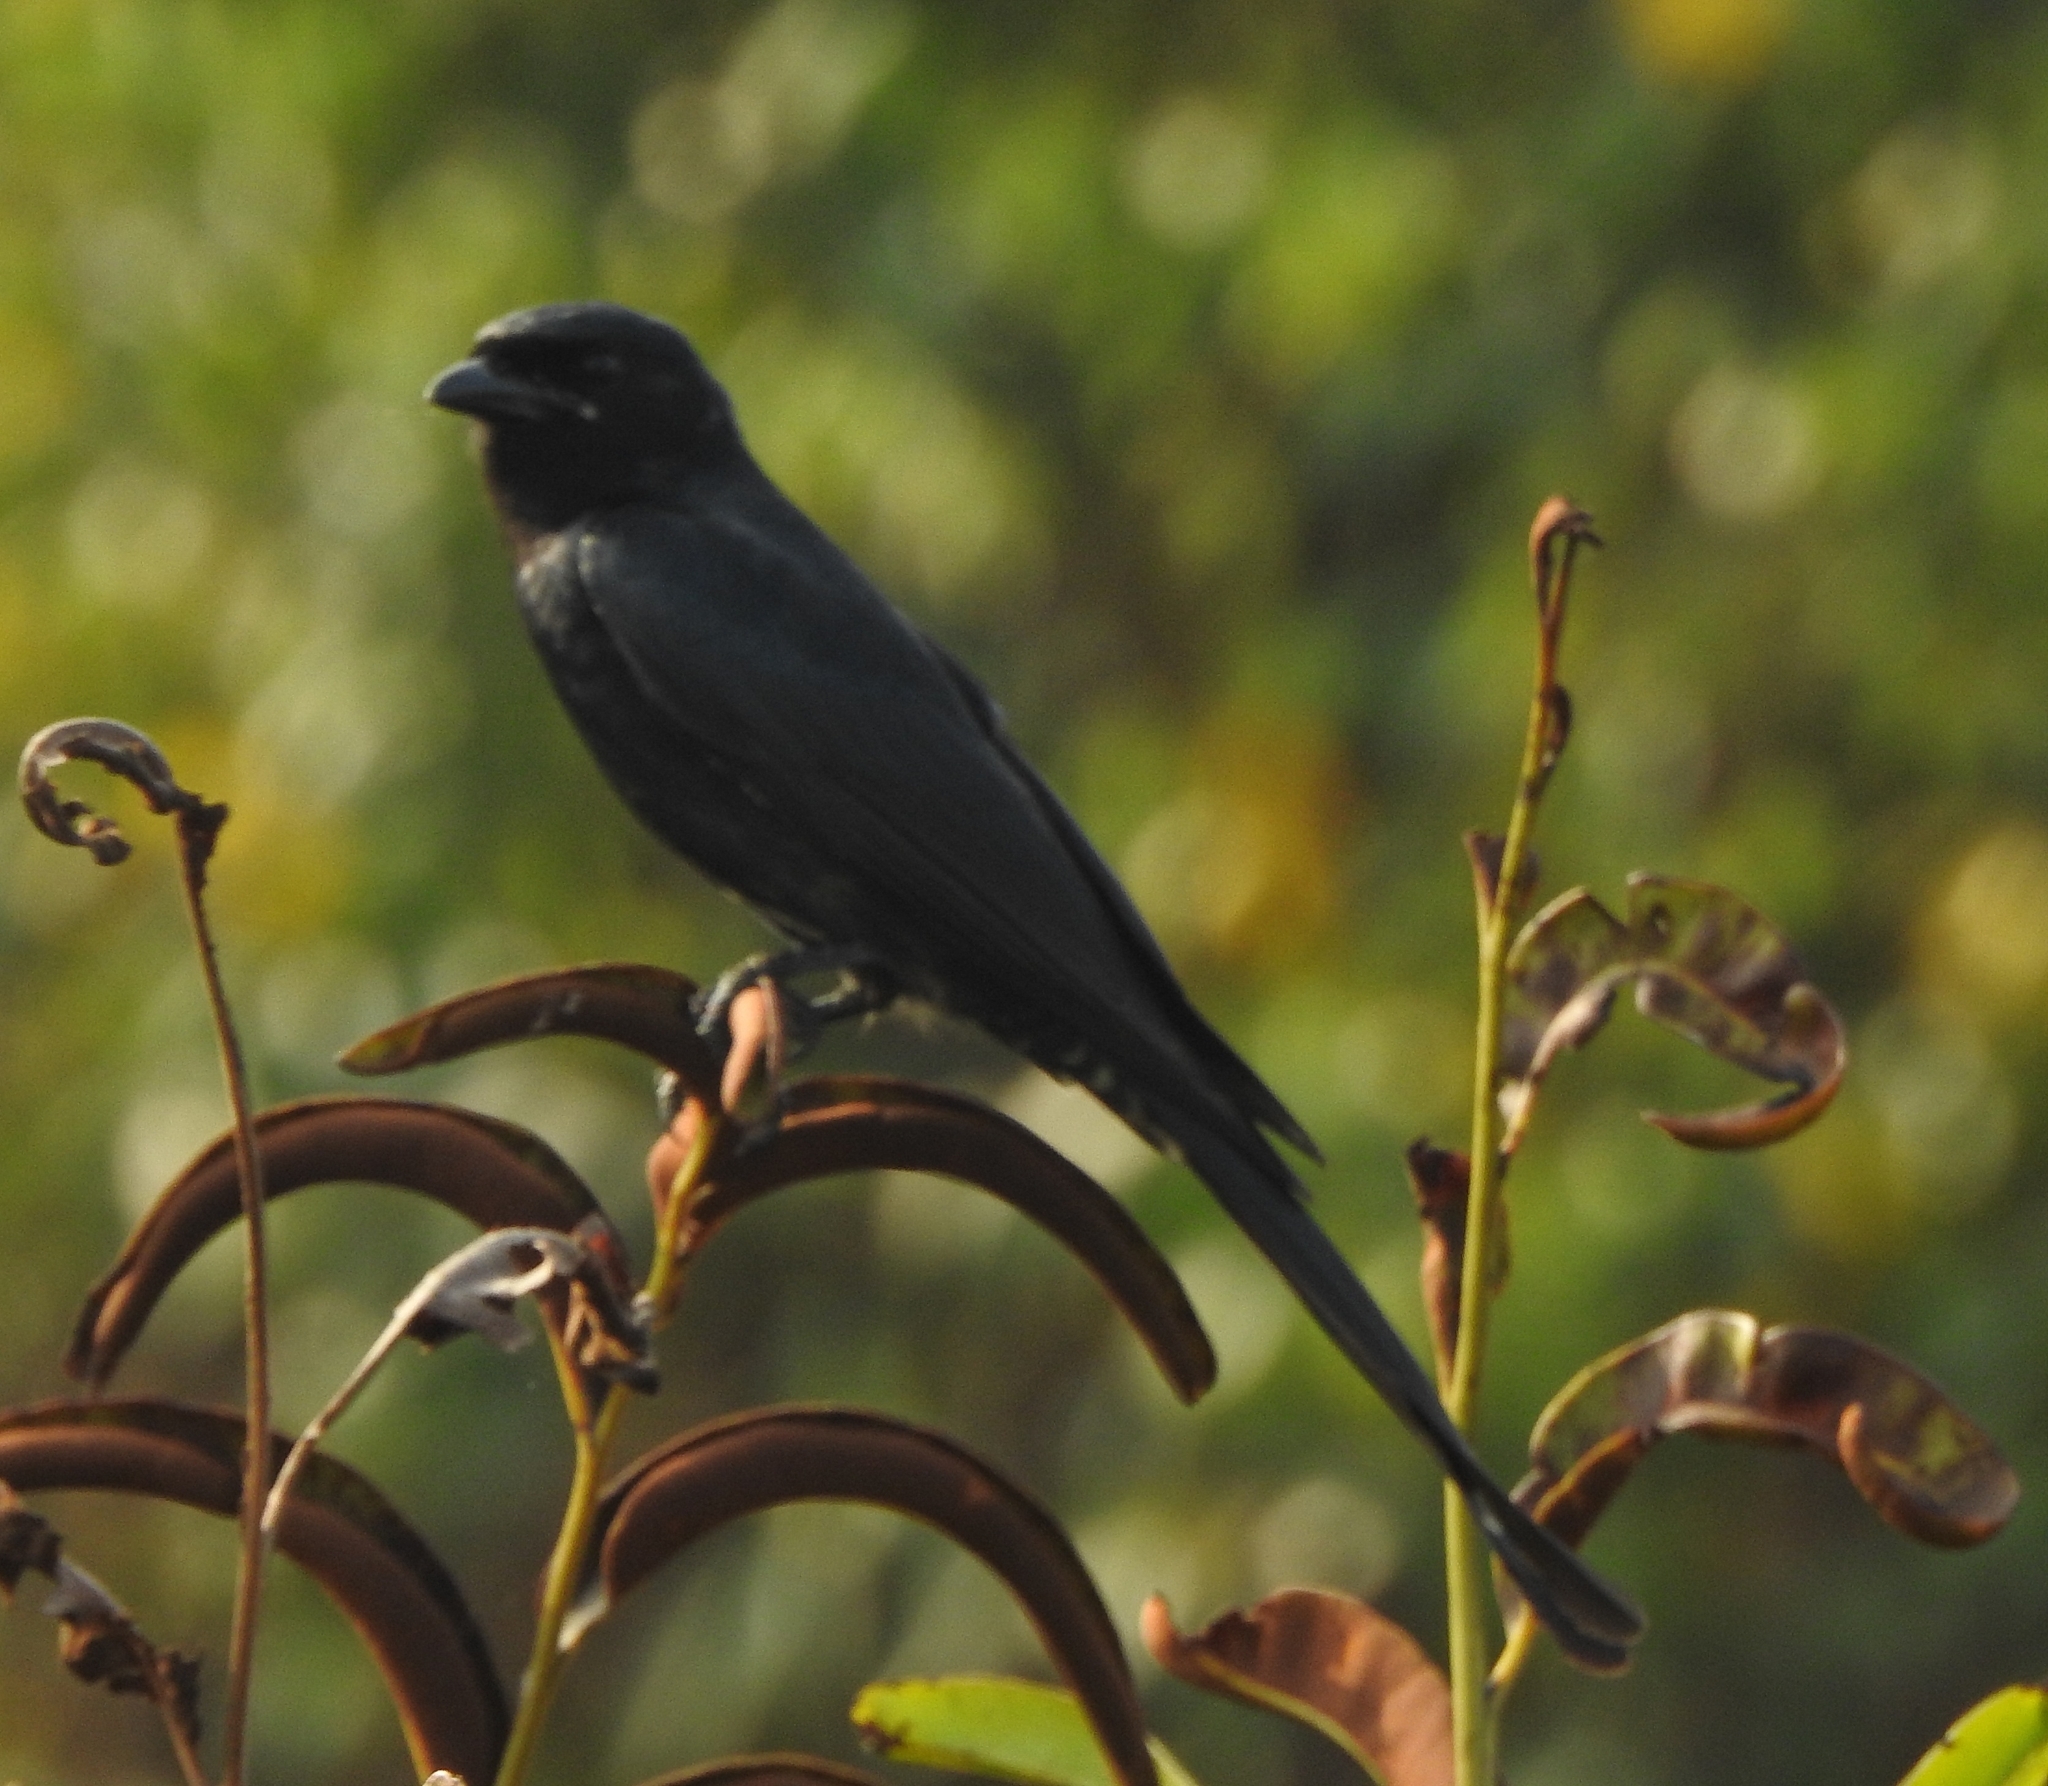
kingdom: Animalia
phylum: Chordata
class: Aves
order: Passeriformes
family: Dicruridae
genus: Dicrurus
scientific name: Dicrurus macrocercus
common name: Black drongo
